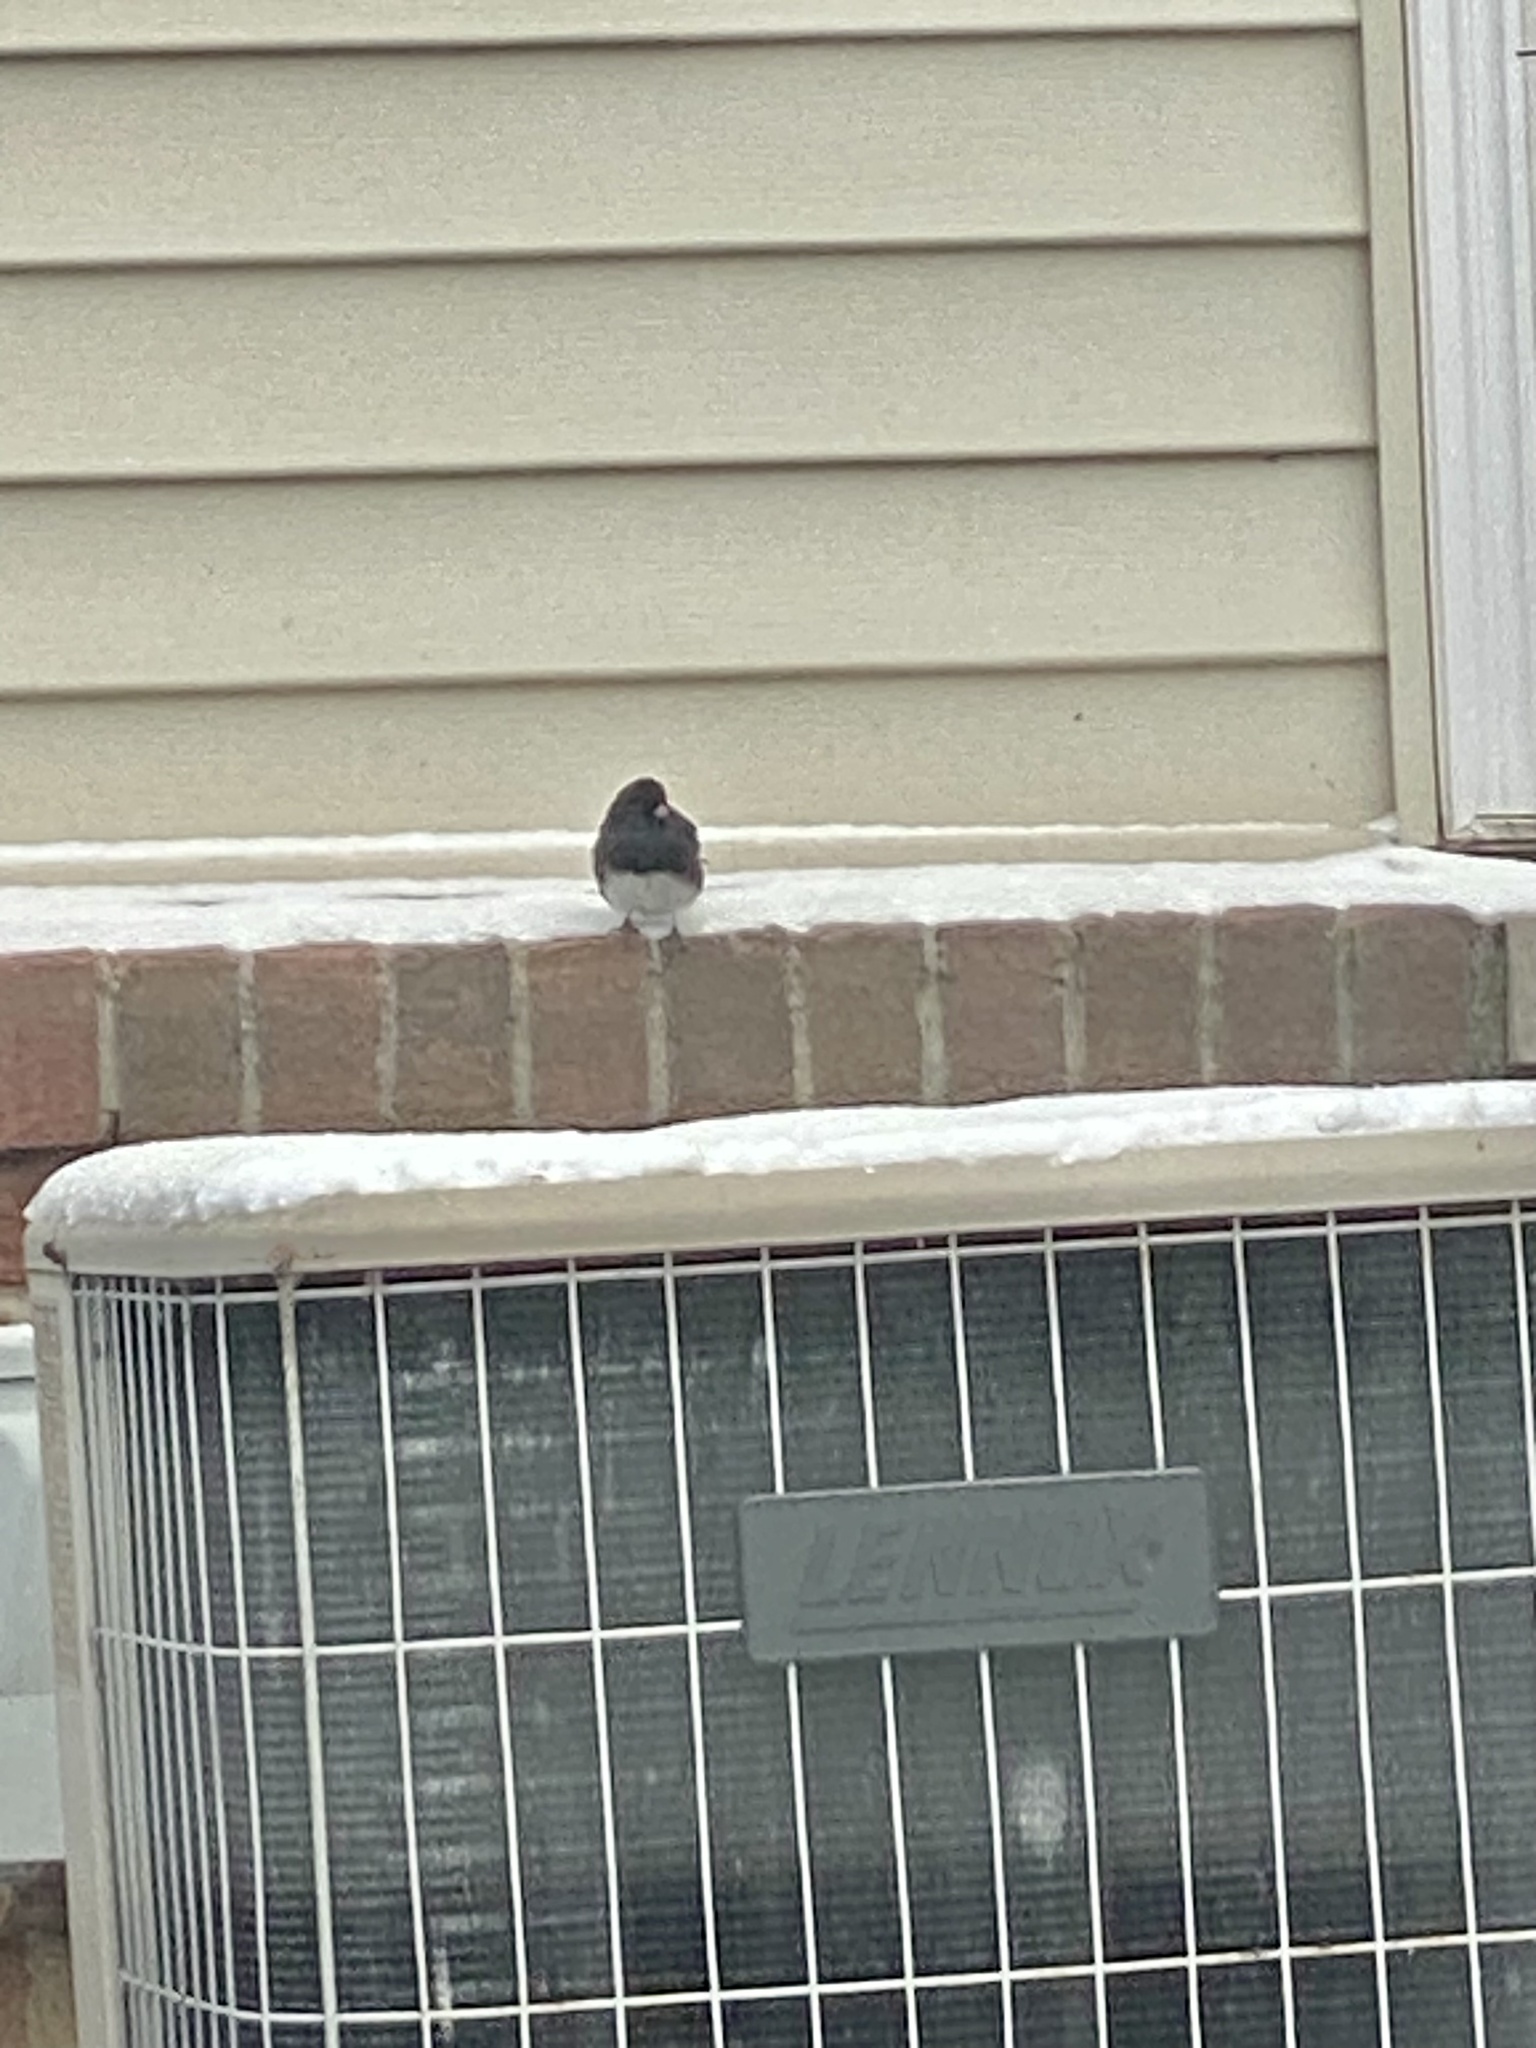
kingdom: Animalia
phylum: Chordata
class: Aves
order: Passeriformes
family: Passerellidae
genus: Junco
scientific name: Junco hyemalis
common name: Dark-eyed junco
